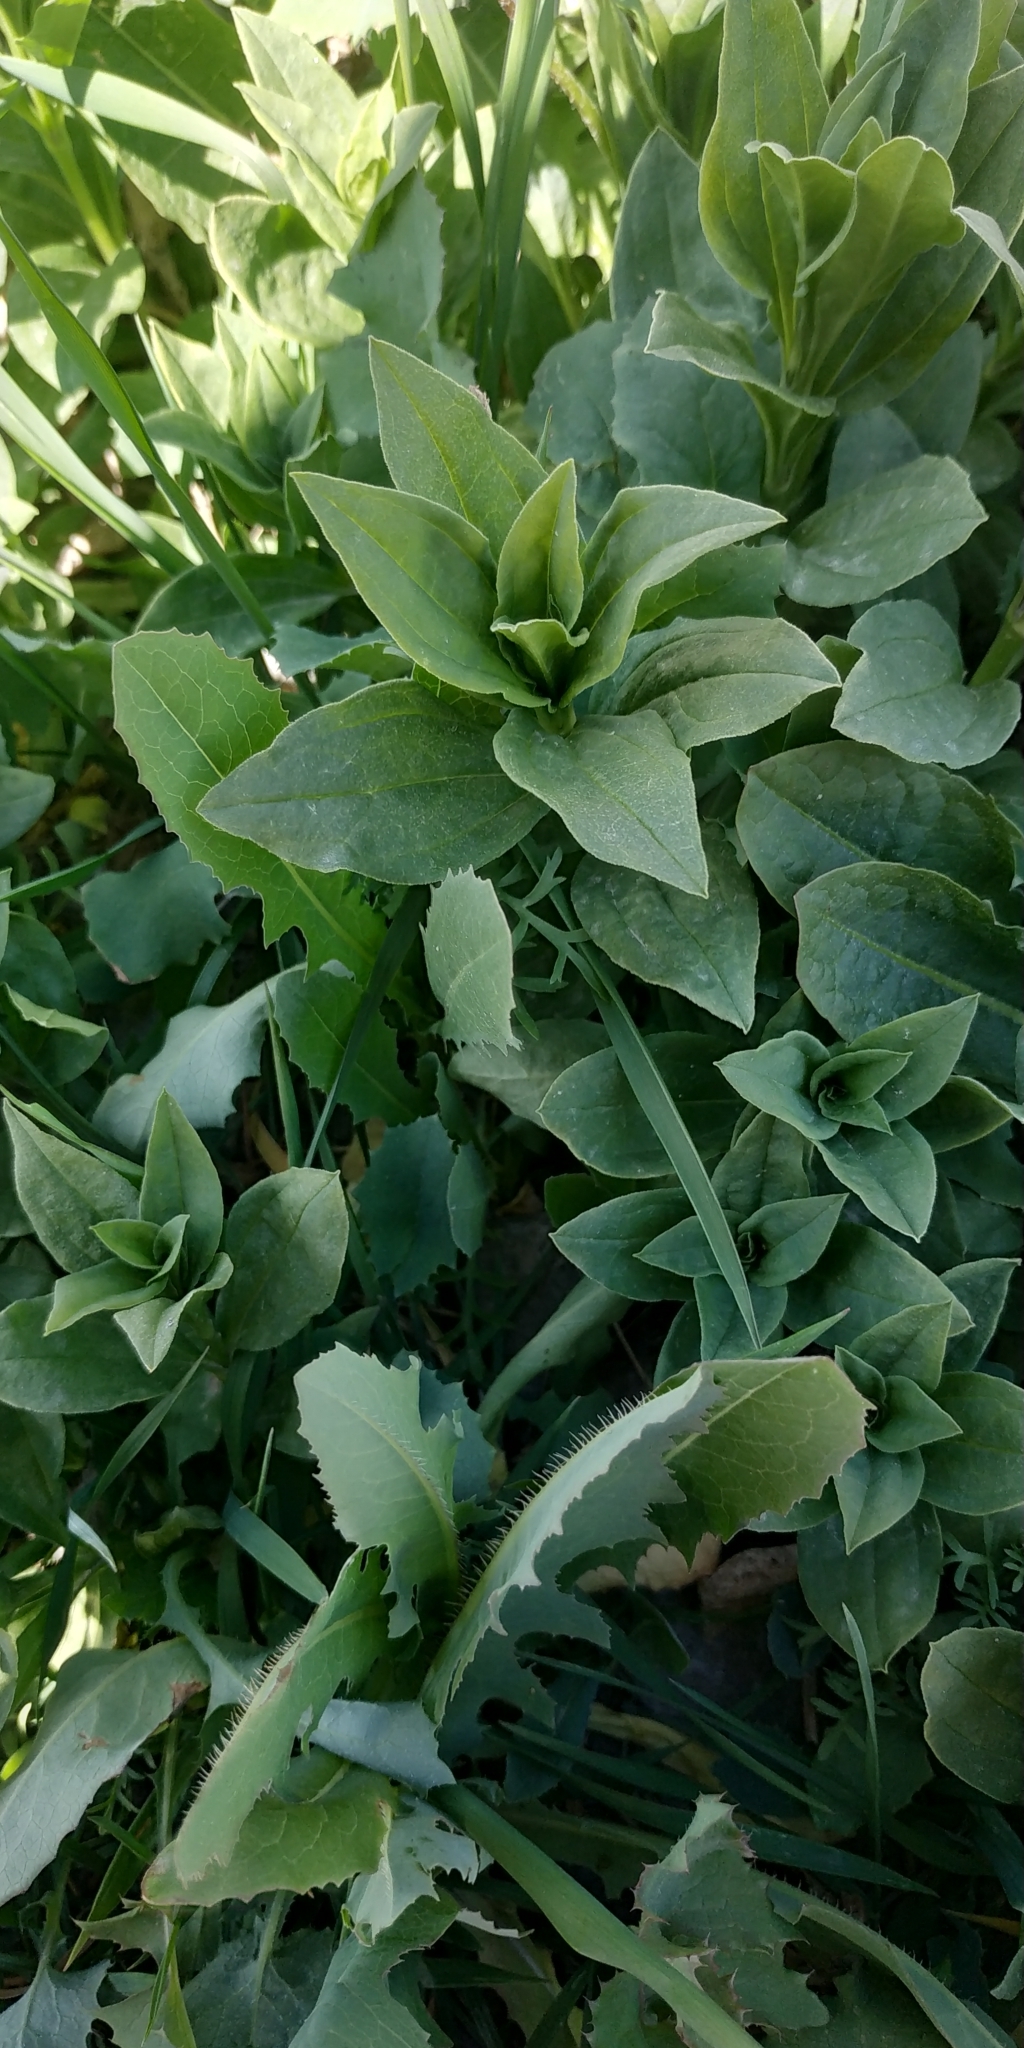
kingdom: Plantae
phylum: Tracheophyta
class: Magnoliopsida
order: Caryophyllales
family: Caryophyllaceae
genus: Saponaria
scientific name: Saponaria officinalis
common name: Soapwort
